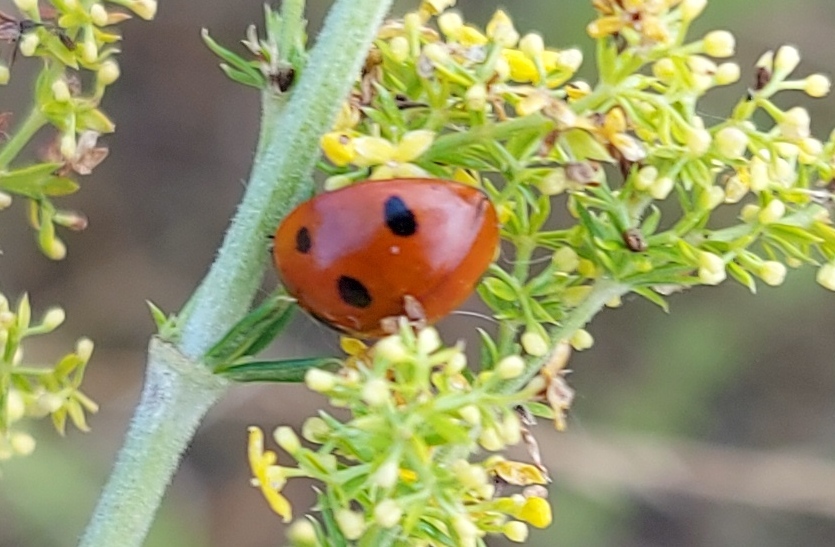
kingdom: Animalia
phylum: Arthropoda
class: Insecta
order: Coleoptera
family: Coccinellidae
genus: Coccinella
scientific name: Coccinella septempunctata
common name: Sevenspotted lady beetle
